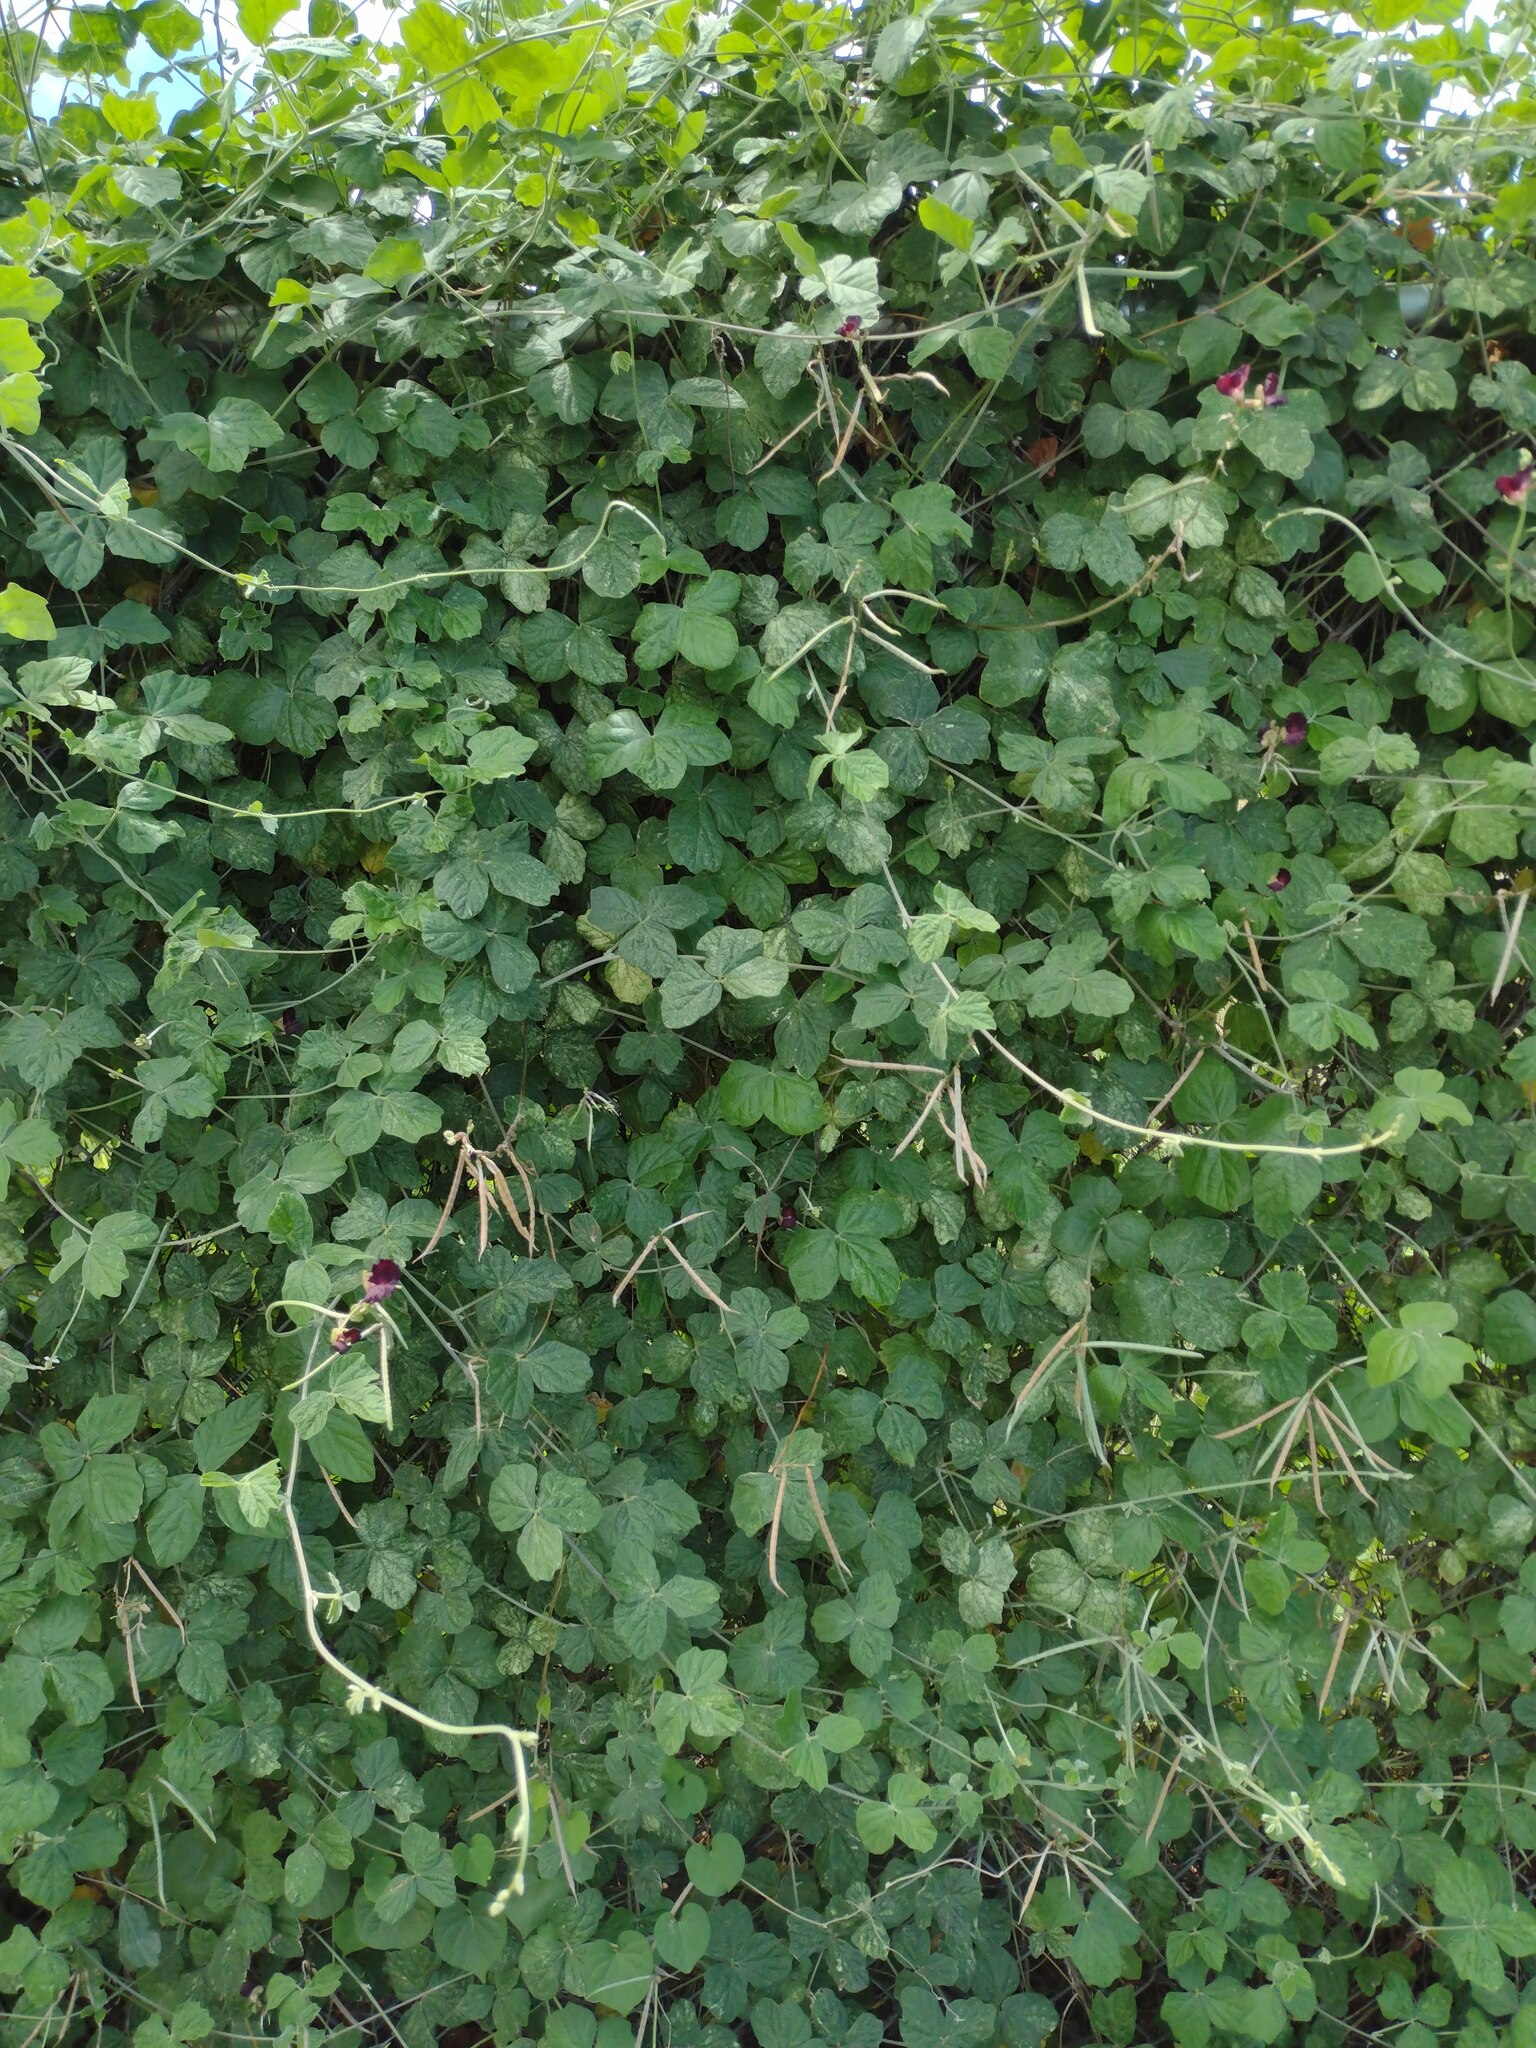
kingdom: Plantae
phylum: Tracheophyta
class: Magnoliopsida
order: Fabales
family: Fabaceae
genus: Macroptilium
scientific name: Macroptilium atropurpureum
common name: Purple bushbean
